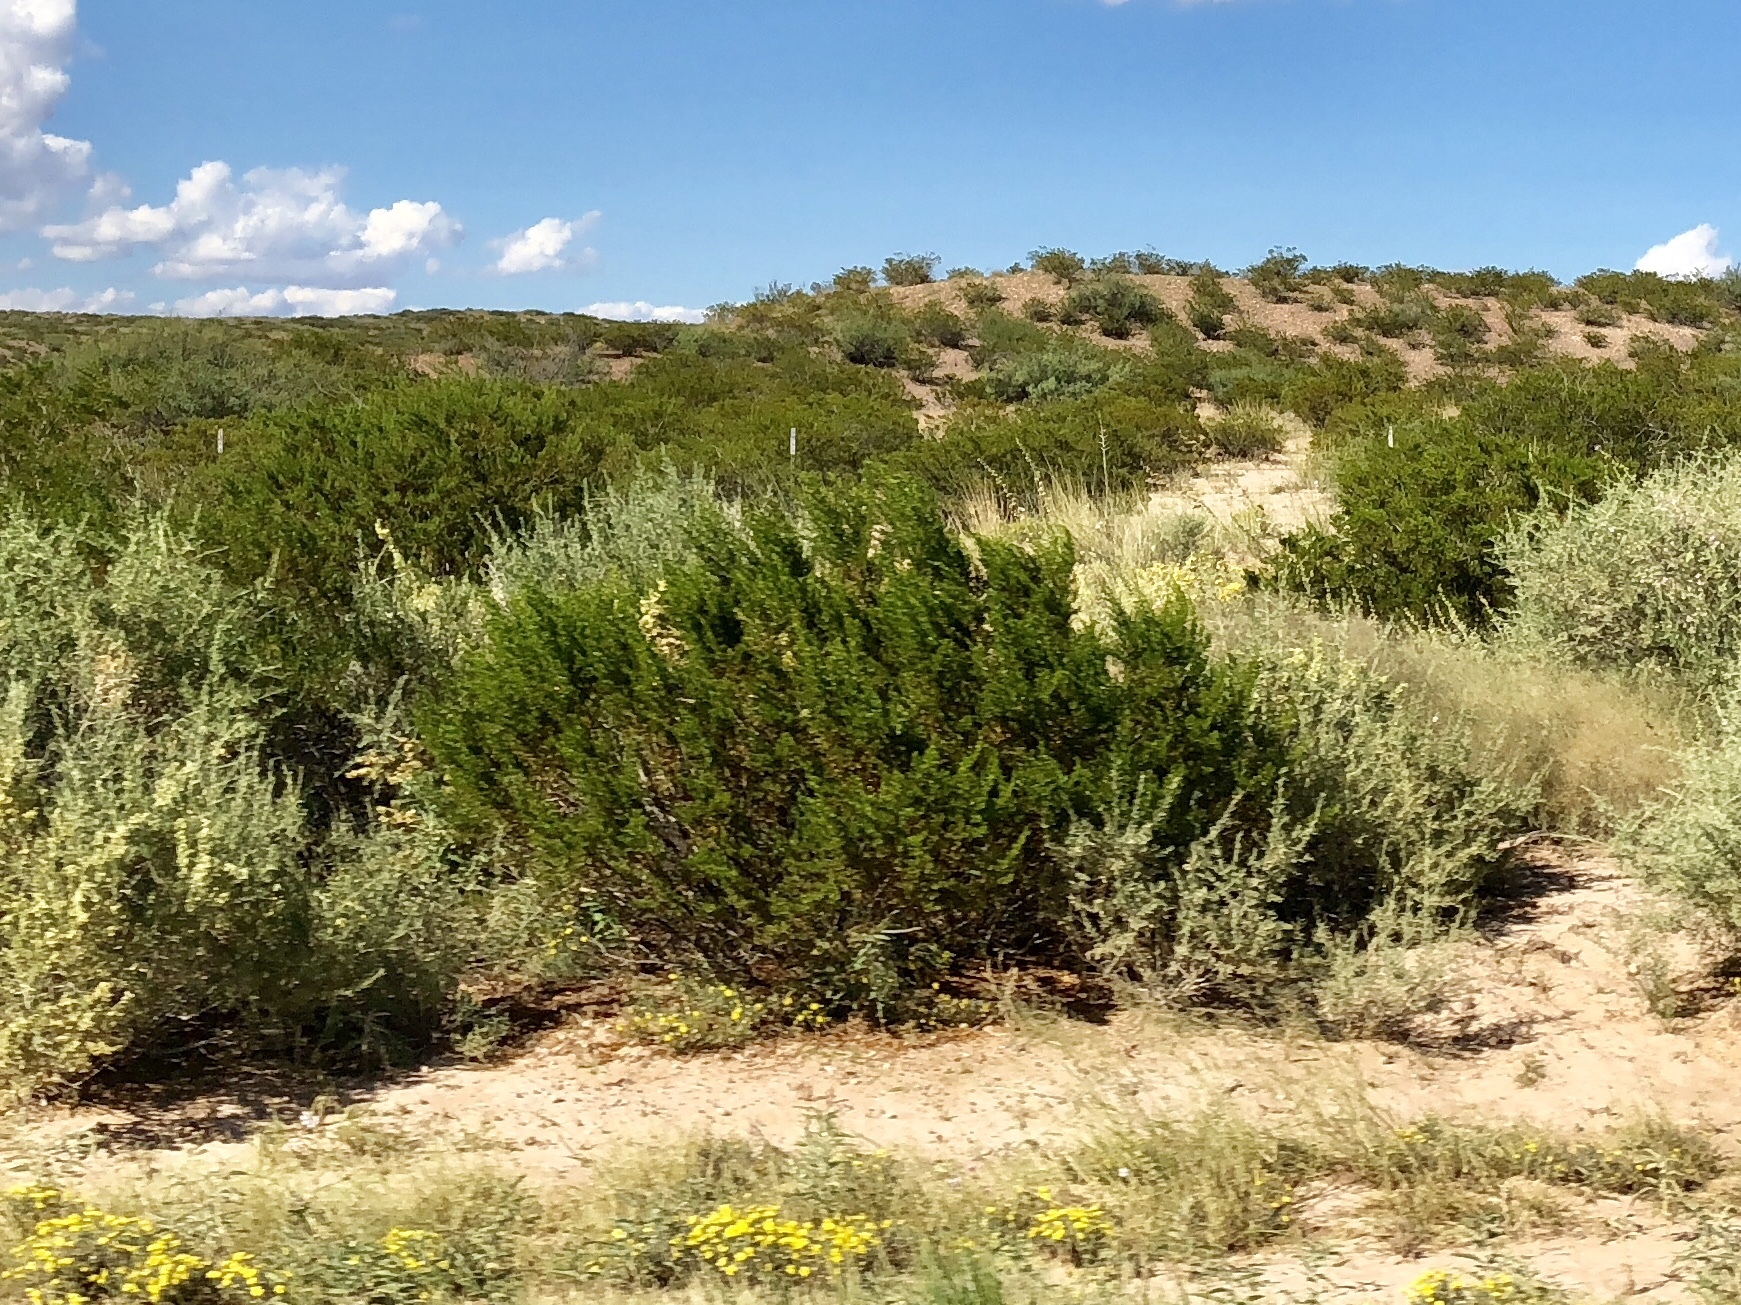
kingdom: Plantae
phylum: Tracheophyta
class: Magnoliopsida
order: Zygophyllales
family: Zygophyllaceae
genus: Larrea
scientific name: Larrea tridentata
